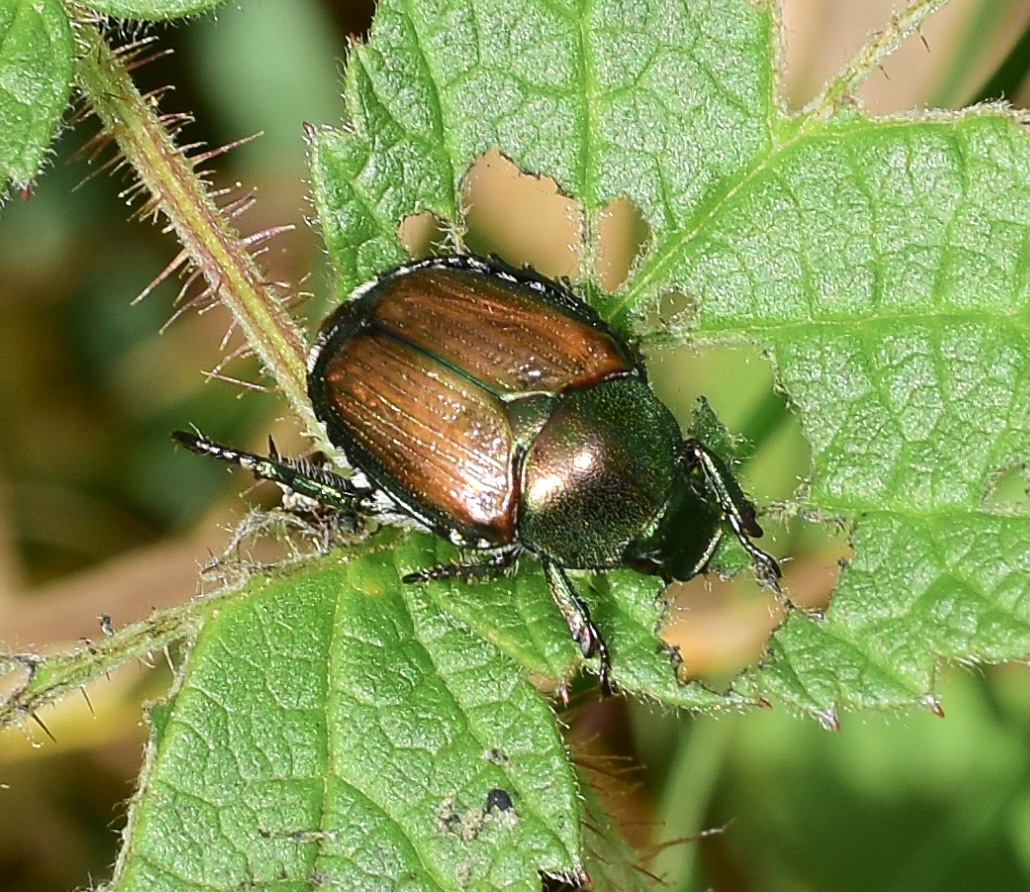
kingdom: Animalia
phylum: Arthropoda
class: Insecta
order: Coleoptera
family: Scarabaeidae
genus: Popillia
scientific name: Popillia japonica
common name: Japanese beetle
